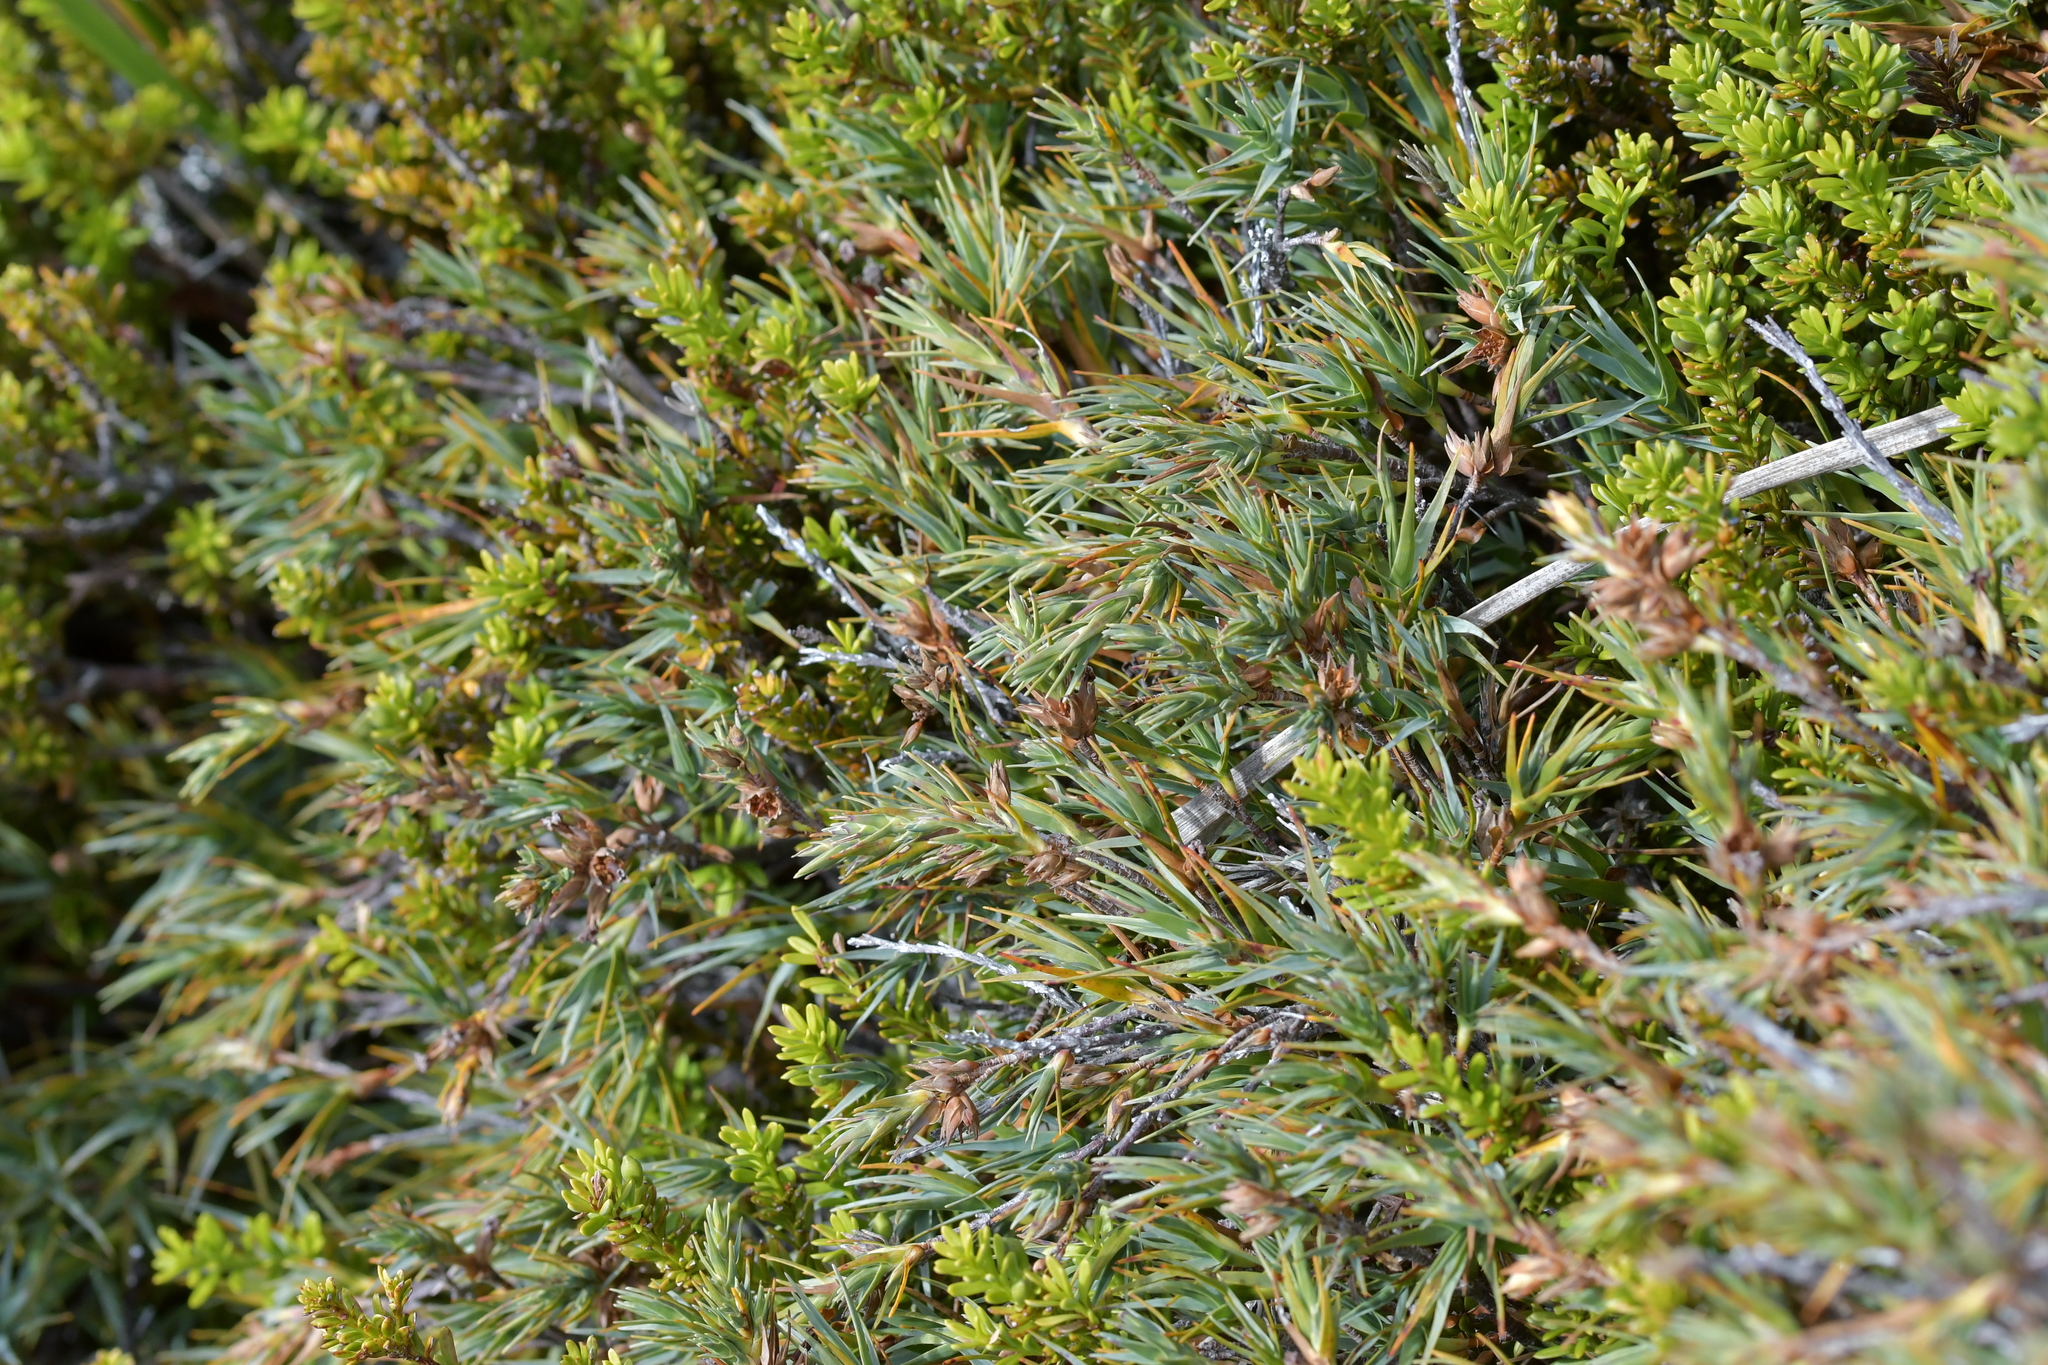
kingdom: Plantae
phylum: Tracheophyta
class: Magnoliopsida
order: Ericales
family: Ericaceae
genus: Dracophyllum
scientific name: Dracophyllum kirkii
